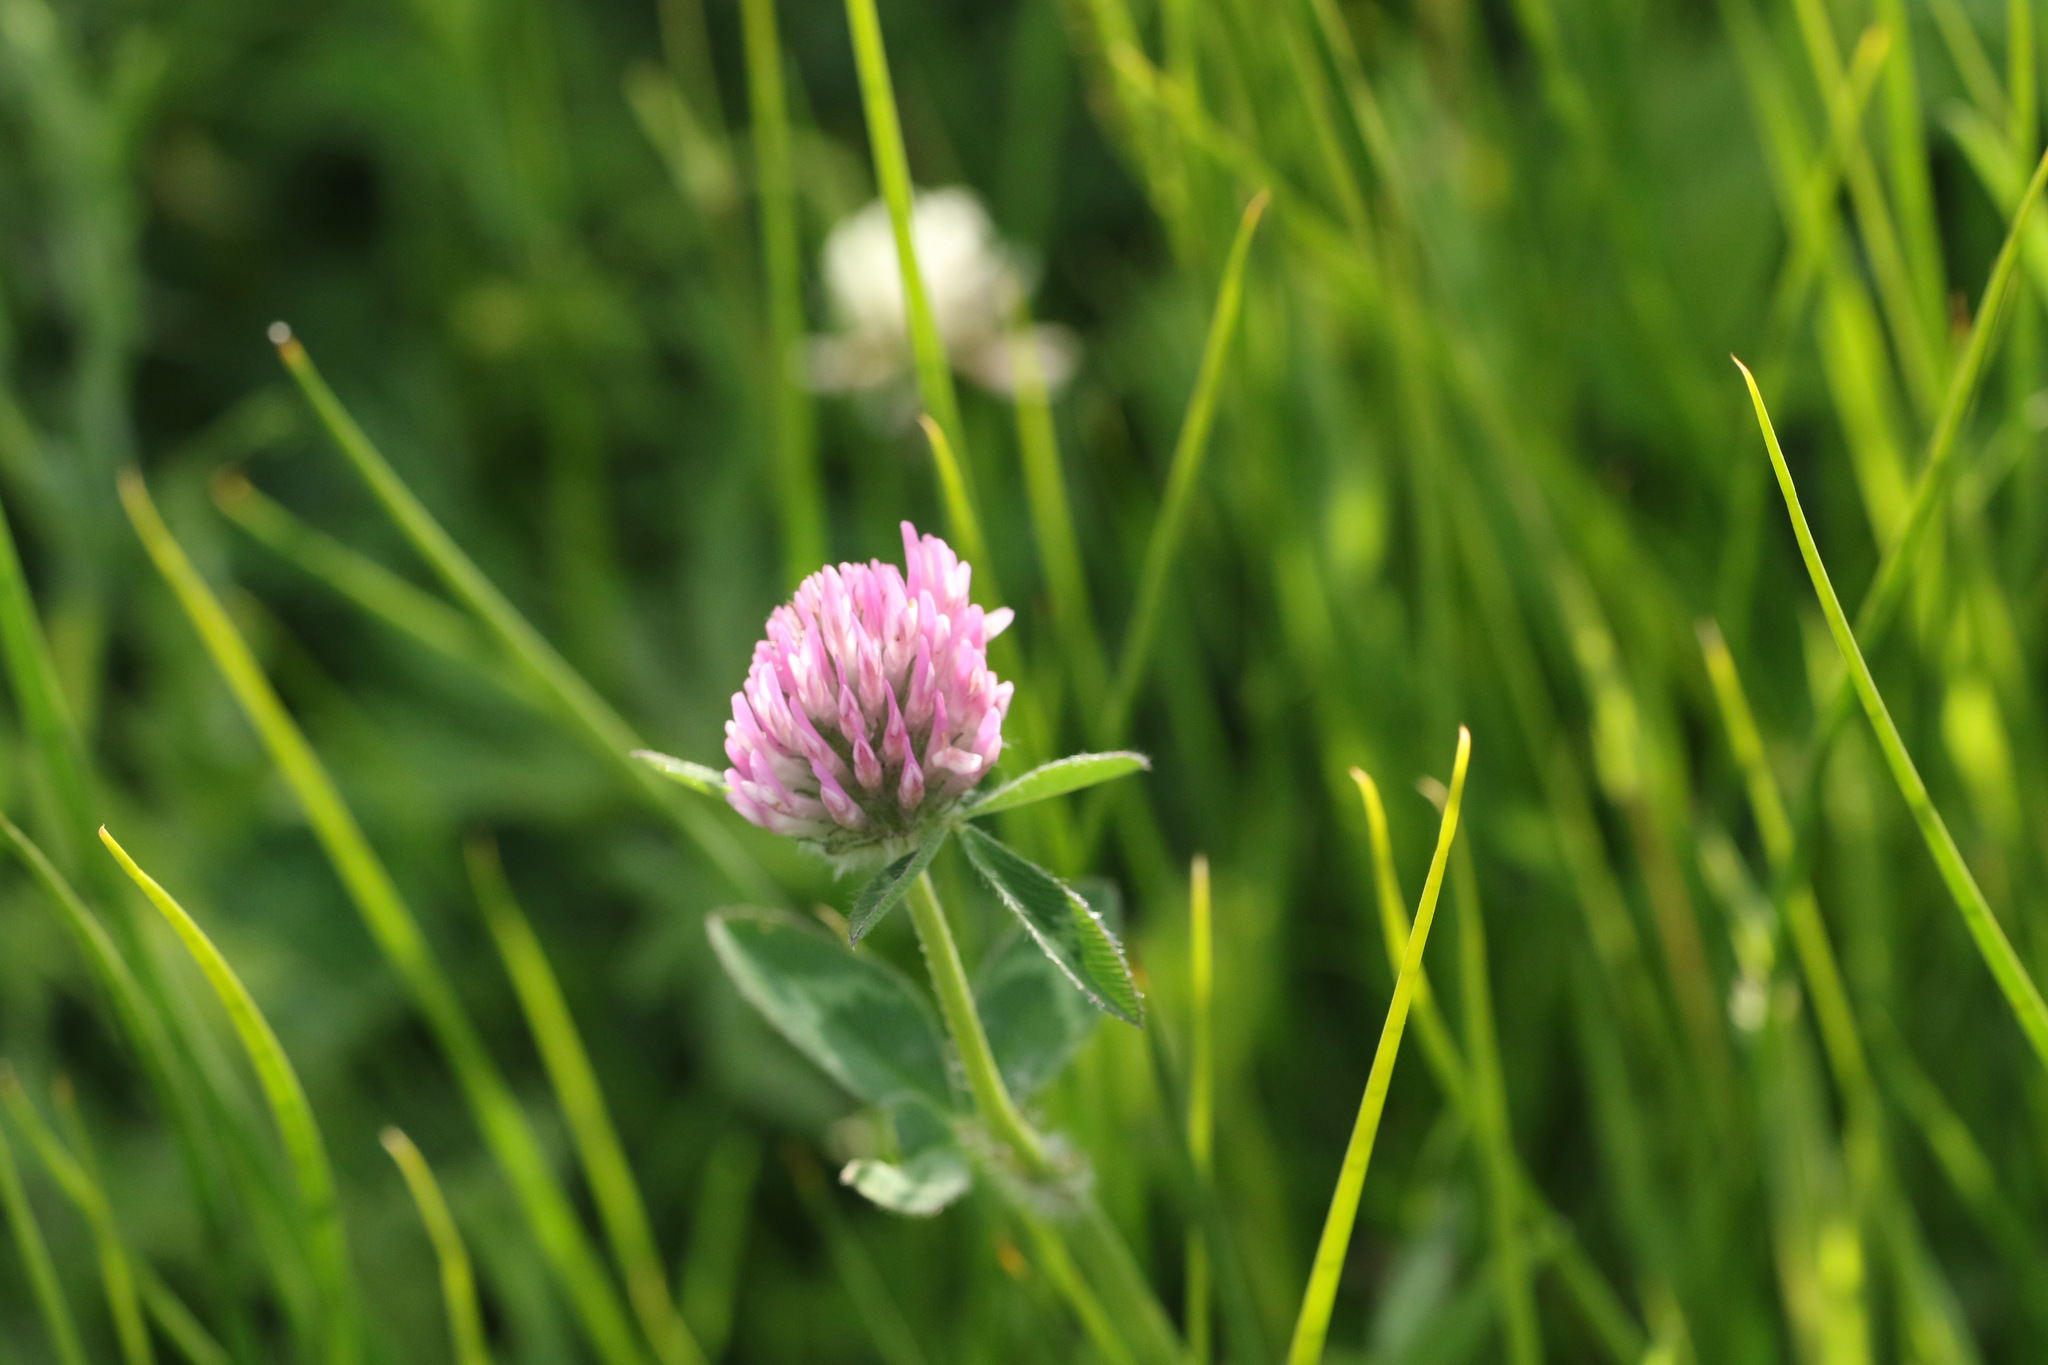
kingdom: Plantae
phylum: Tracheophyta
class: Magnoliopsida
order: Fabales
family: Fabaceae
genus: Trifolium
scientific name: Trifolium pratense
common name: Red clover
